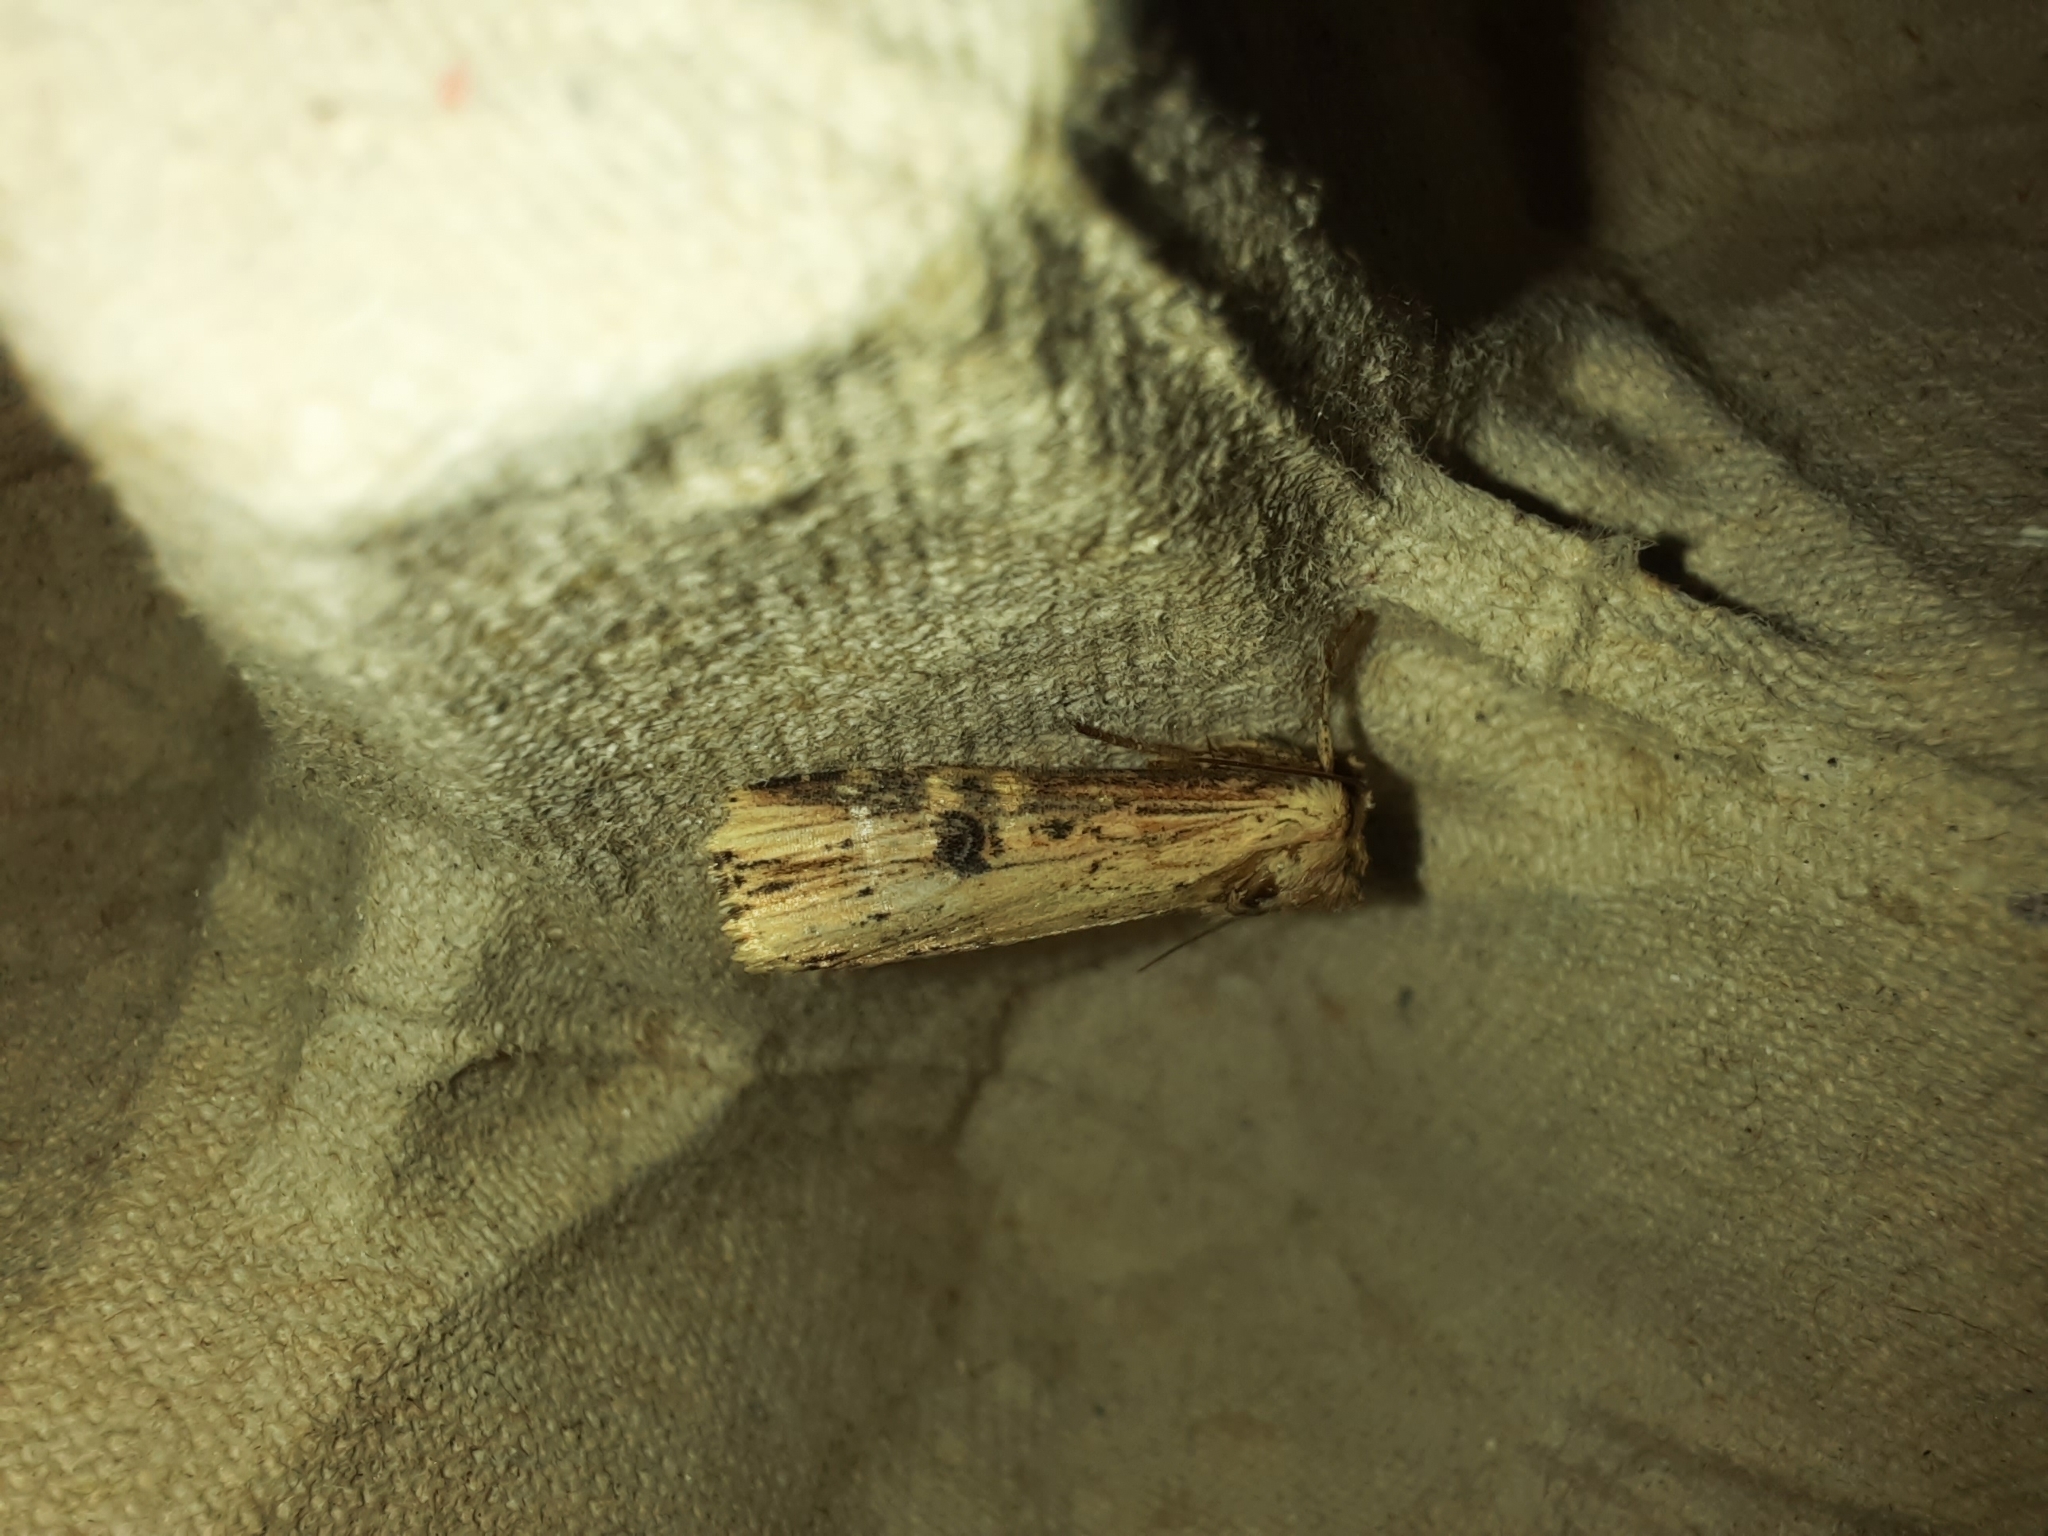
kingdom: Animalia
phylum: Arthropoda
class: Insecta
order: Lepidoptera
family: Noctuidae
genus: Axylia
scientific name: Axylia putris
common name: Flame
